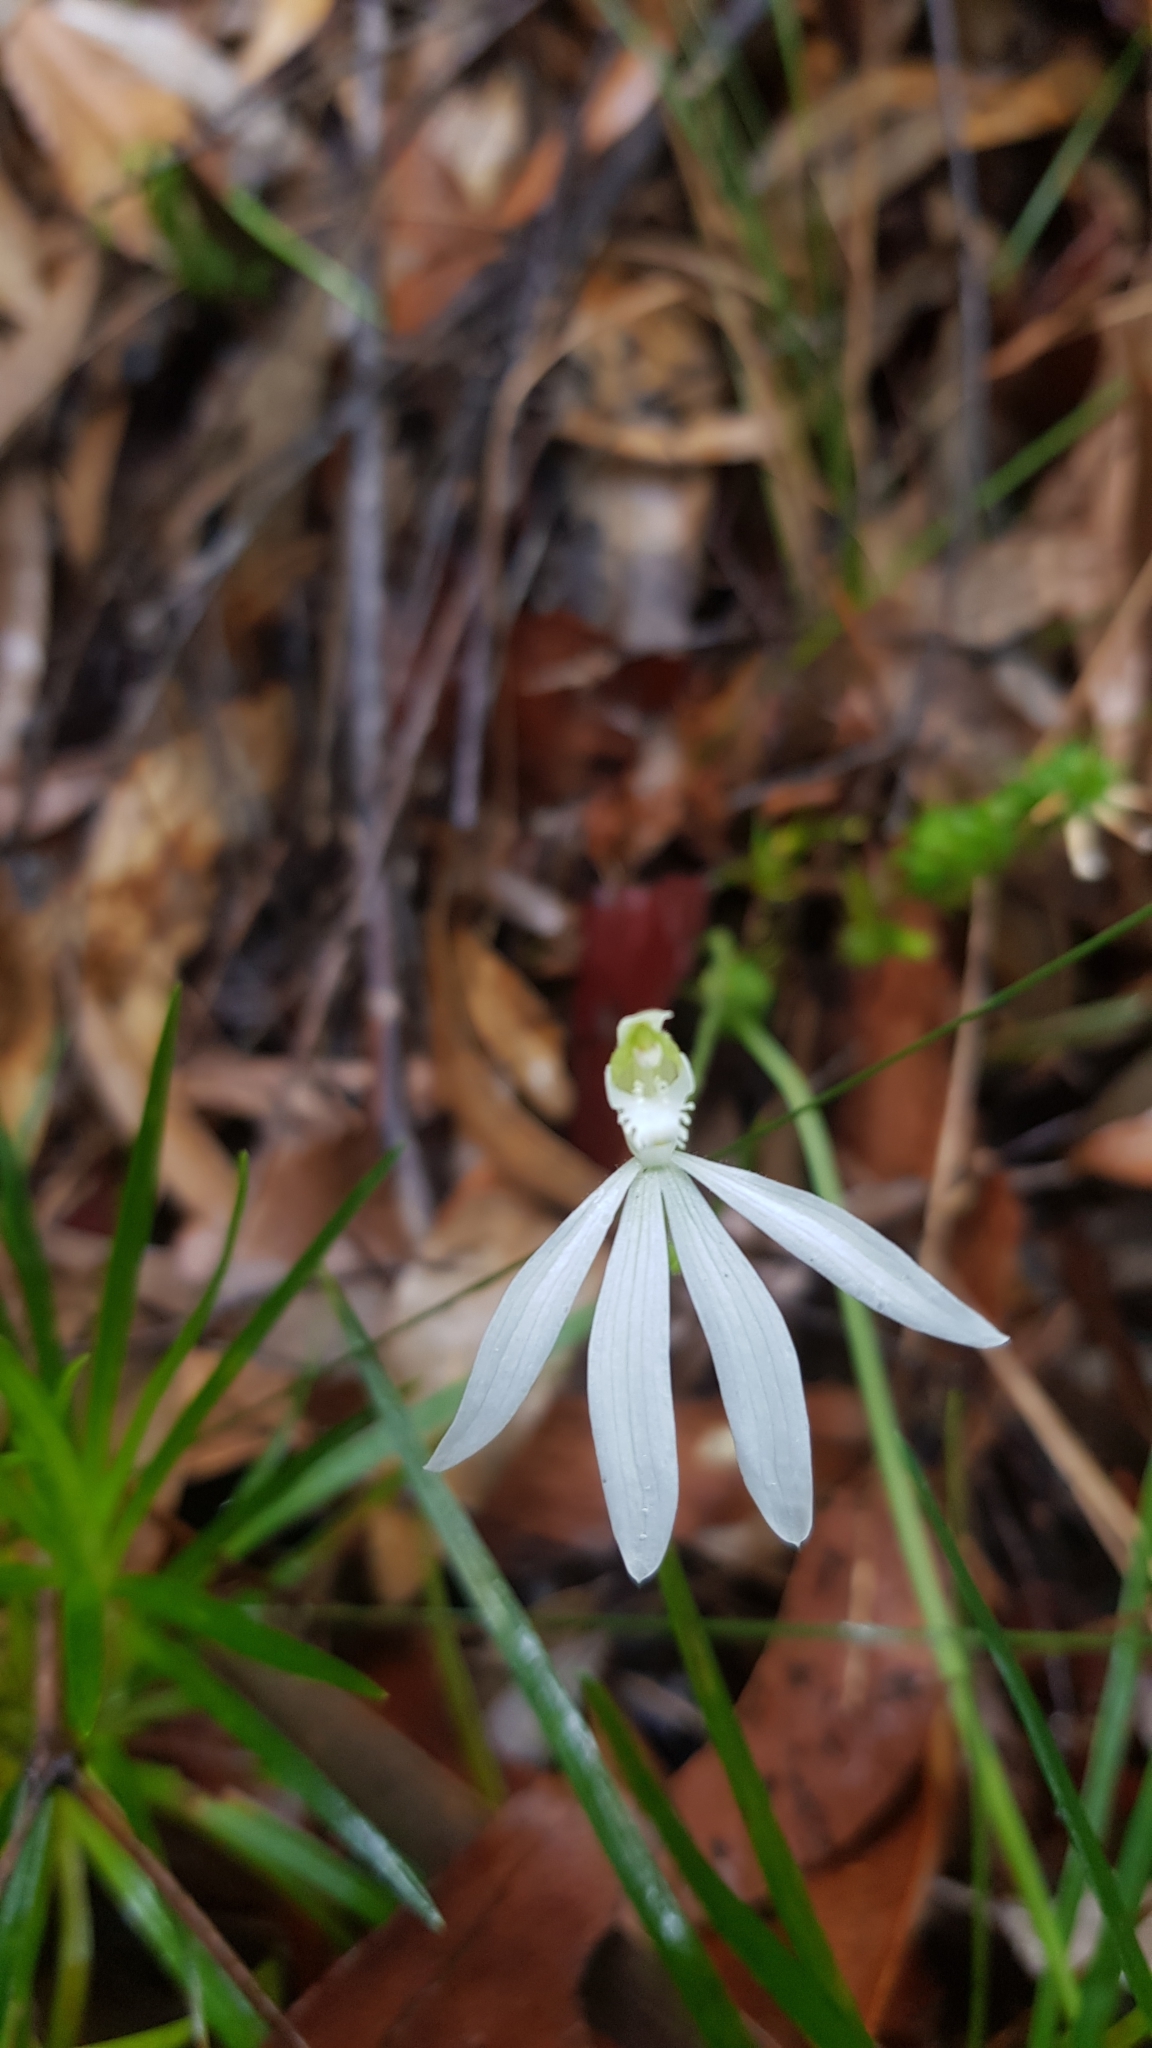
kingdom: Plantae
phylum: Tracheophyta
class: Liliopsida
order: Asparagales
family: Orchidaceae
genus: Caladenia
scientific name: Caladenia catenata
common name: White caladenia
